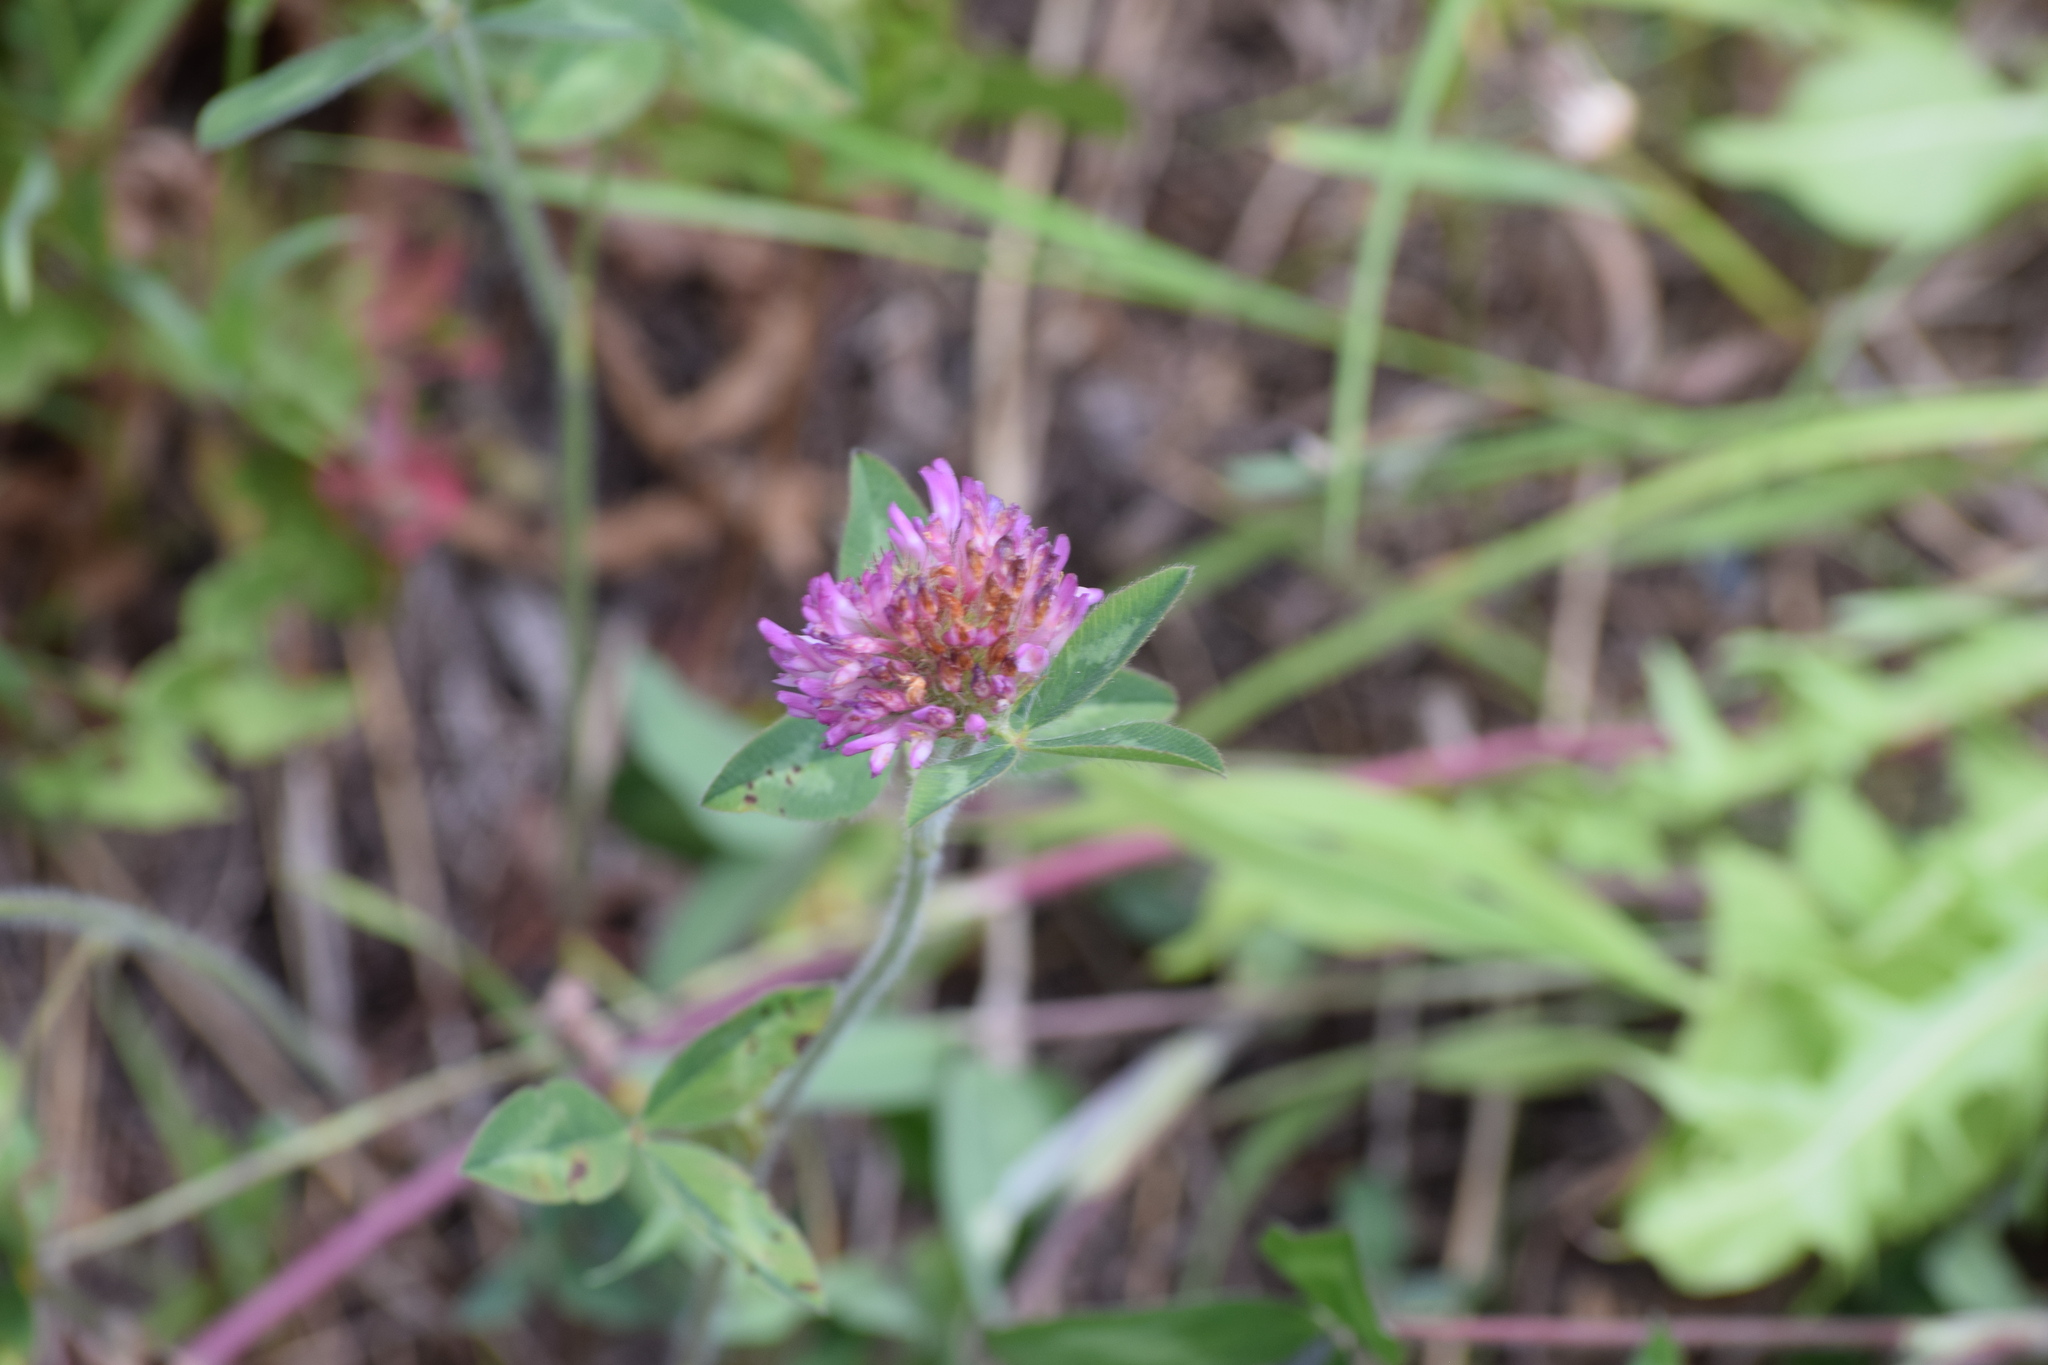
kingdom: Plantae
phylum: Tracheophyta
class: Magnoliopsida
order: Fabales
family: Fabaceae
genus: Trifolium
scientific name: Trifolium pratense
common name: Red clover
